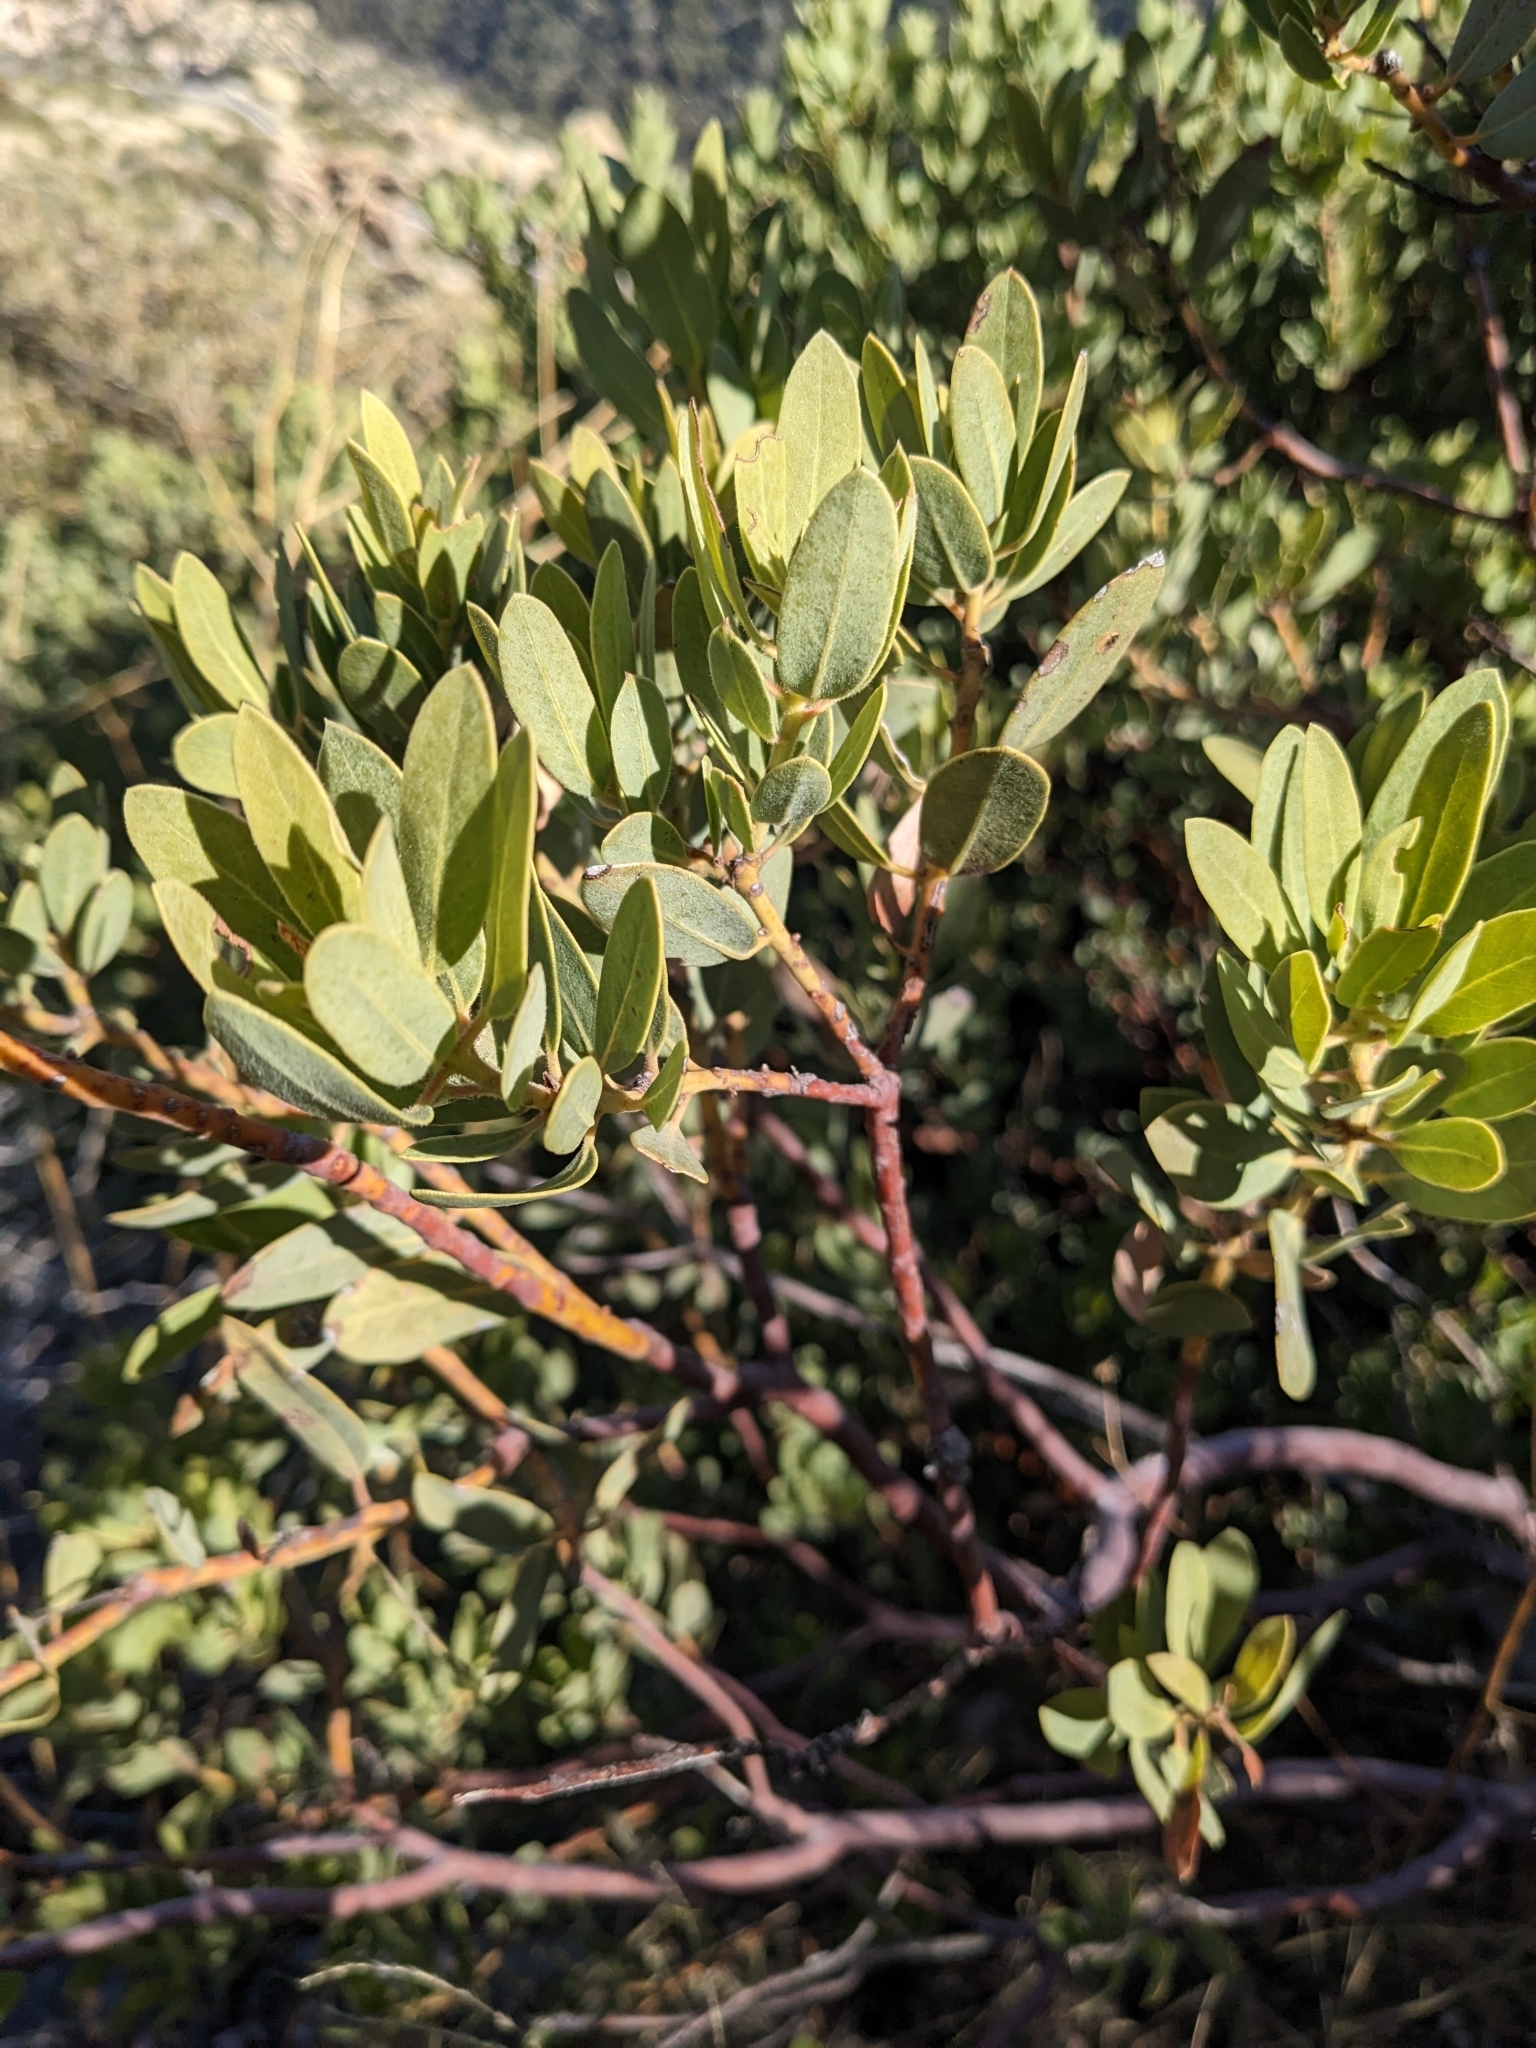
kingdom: Plantae
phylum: Tracheophyta
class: Magnoliopsida
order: Ericales
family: Ericaceae
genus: Arctostaphylos
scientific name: Arctostaphylos pringlei
